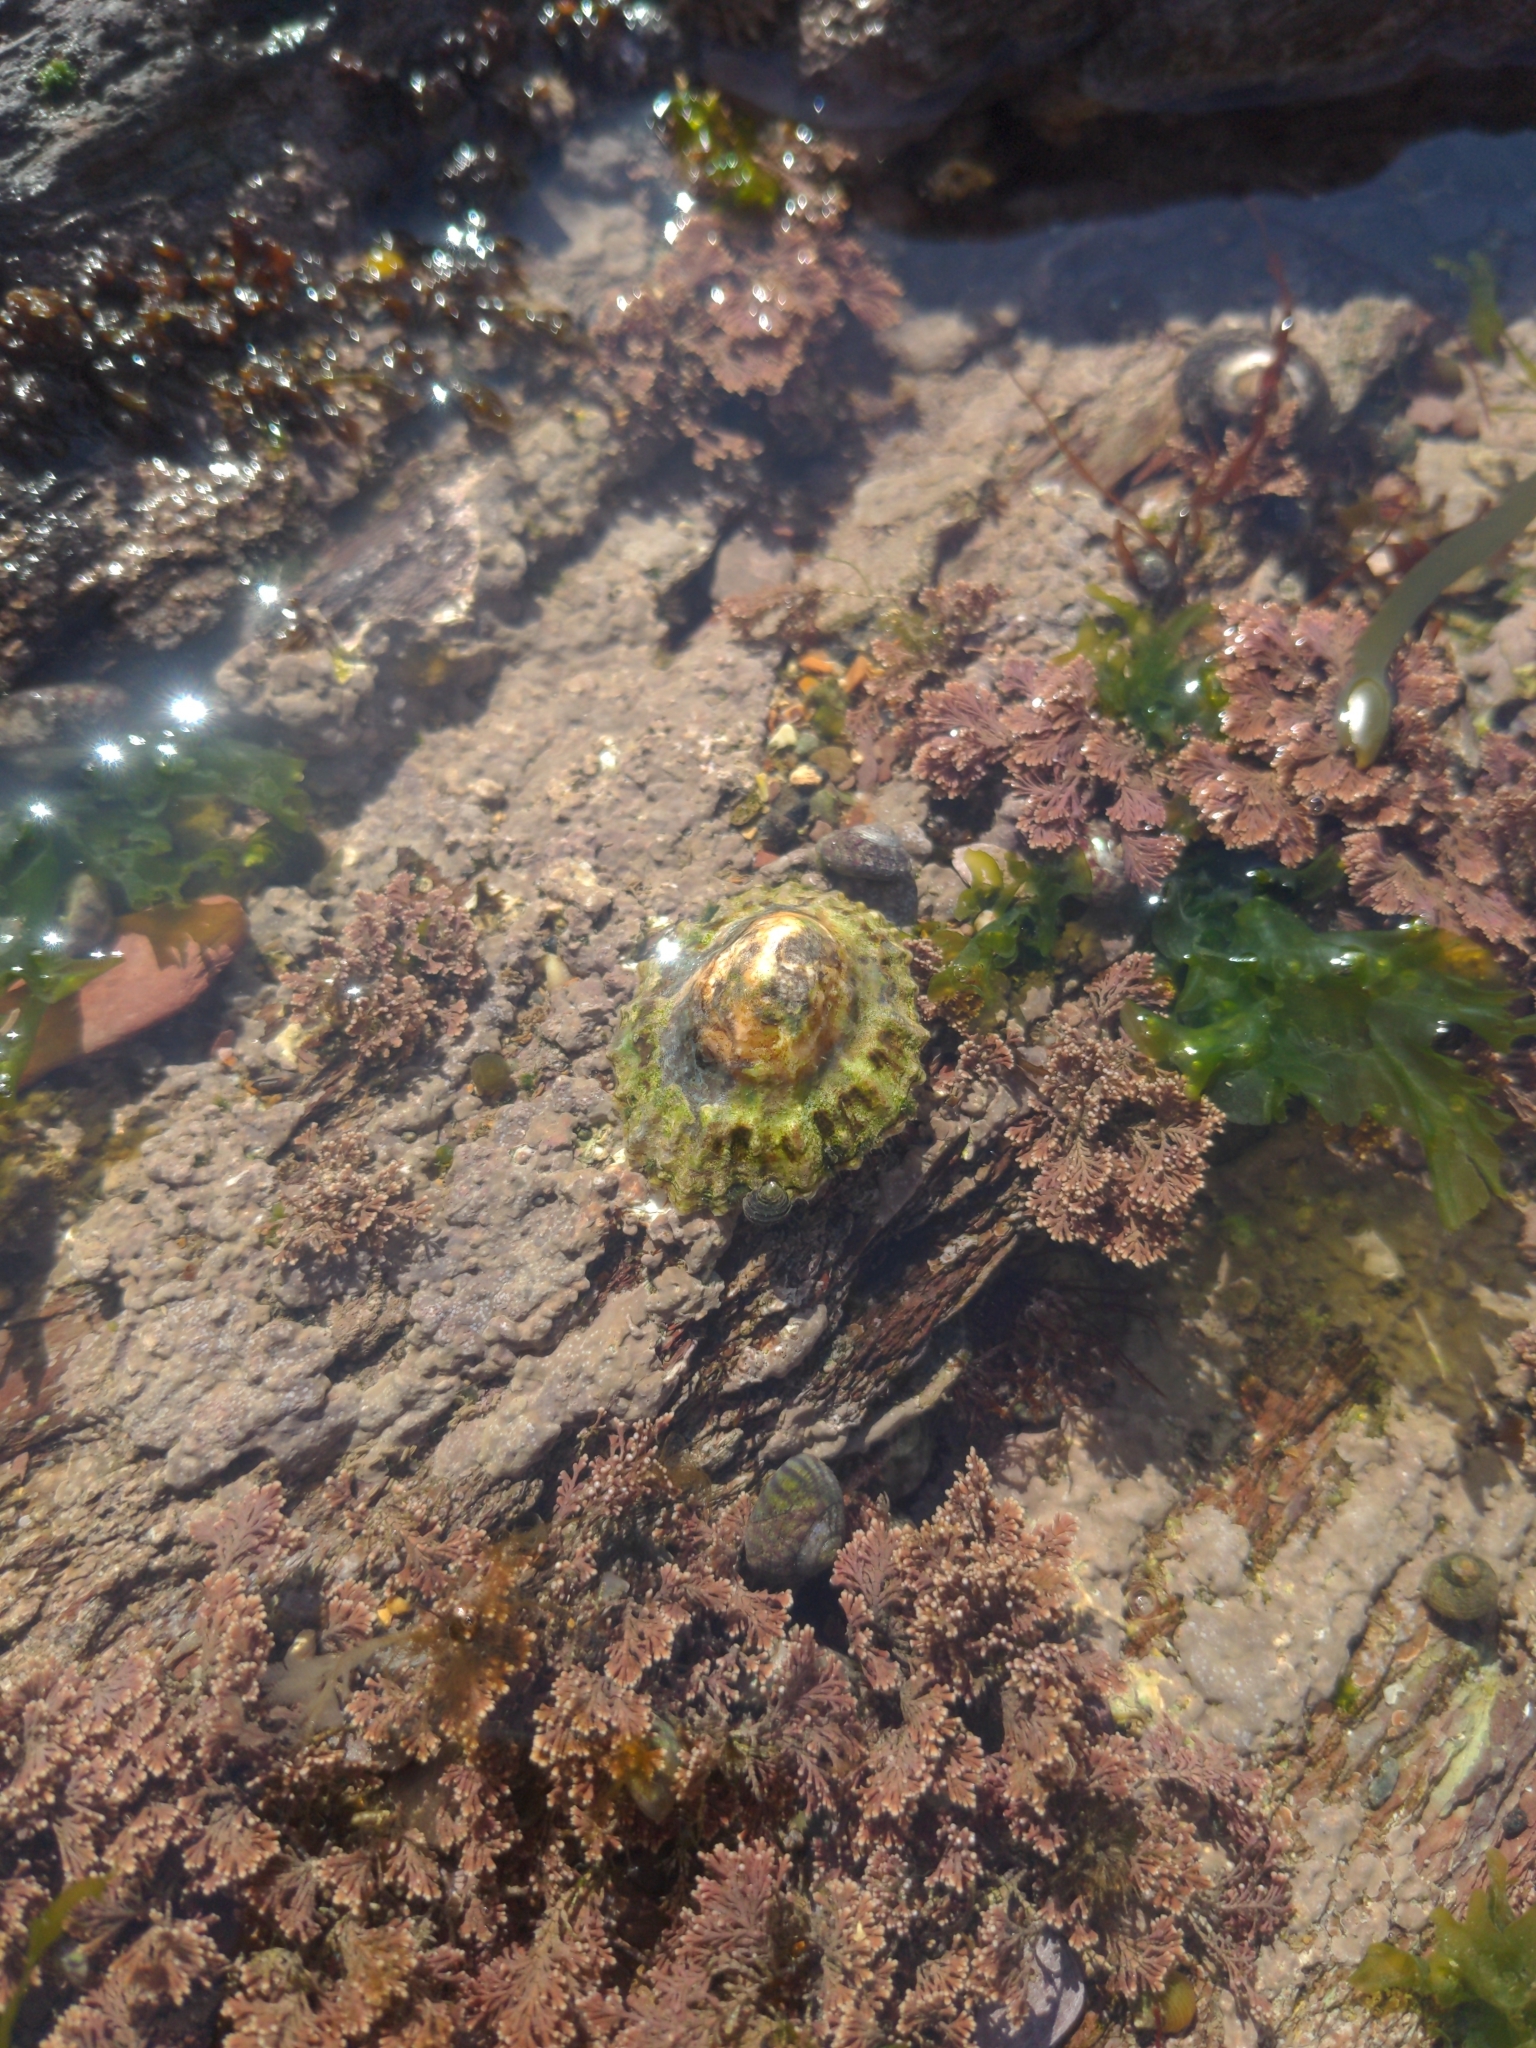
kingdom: Animalia
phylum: Mollusca
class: Gastropoda
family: Patellidae
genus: Patella
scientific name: Patella
